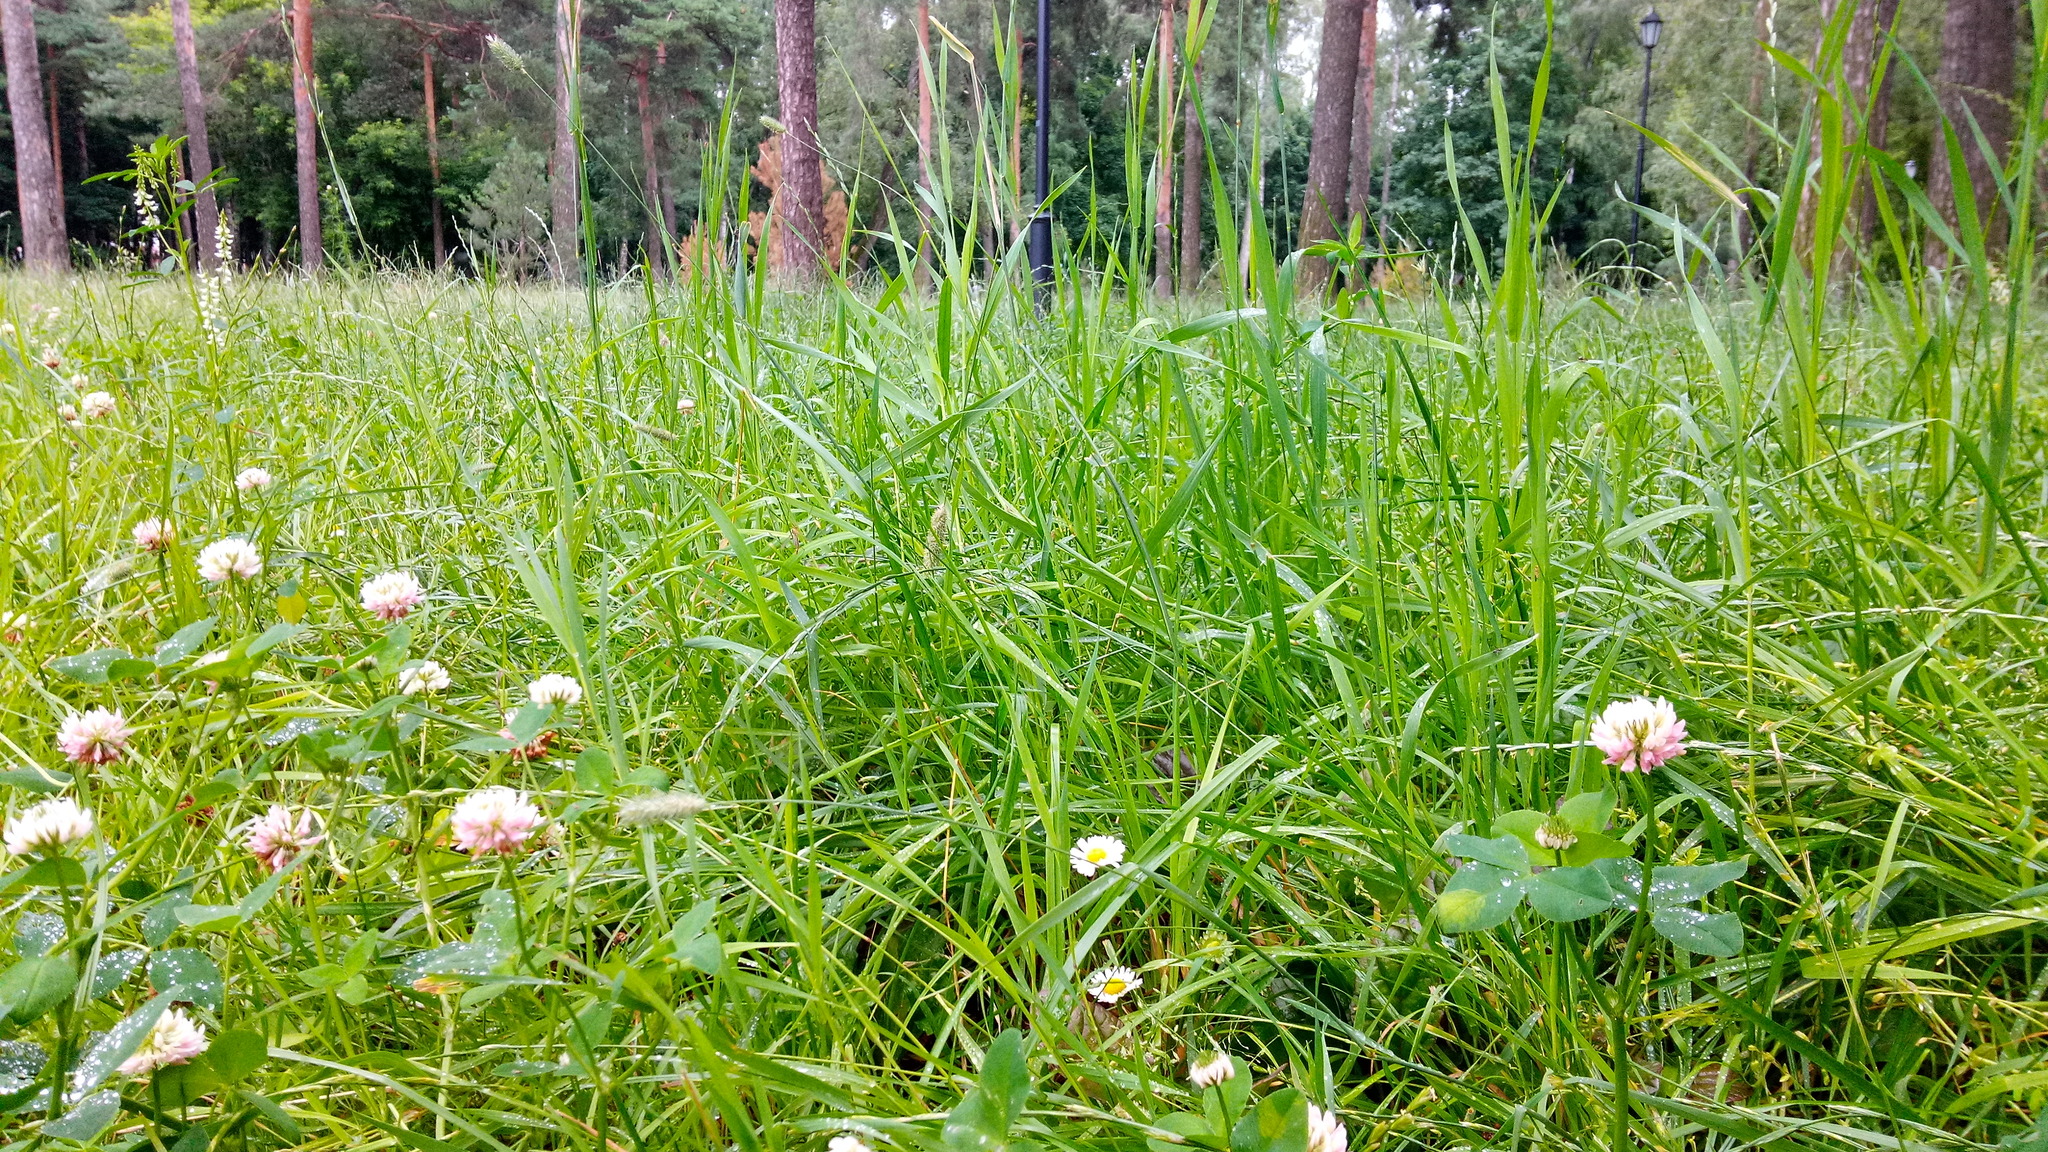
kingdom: Plantae
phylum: Tracheophyta
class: Magnoliopsida
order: Asterales
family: Asteraceae
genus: Bellis
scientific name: Bellis perennis
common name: Lawndaisy
